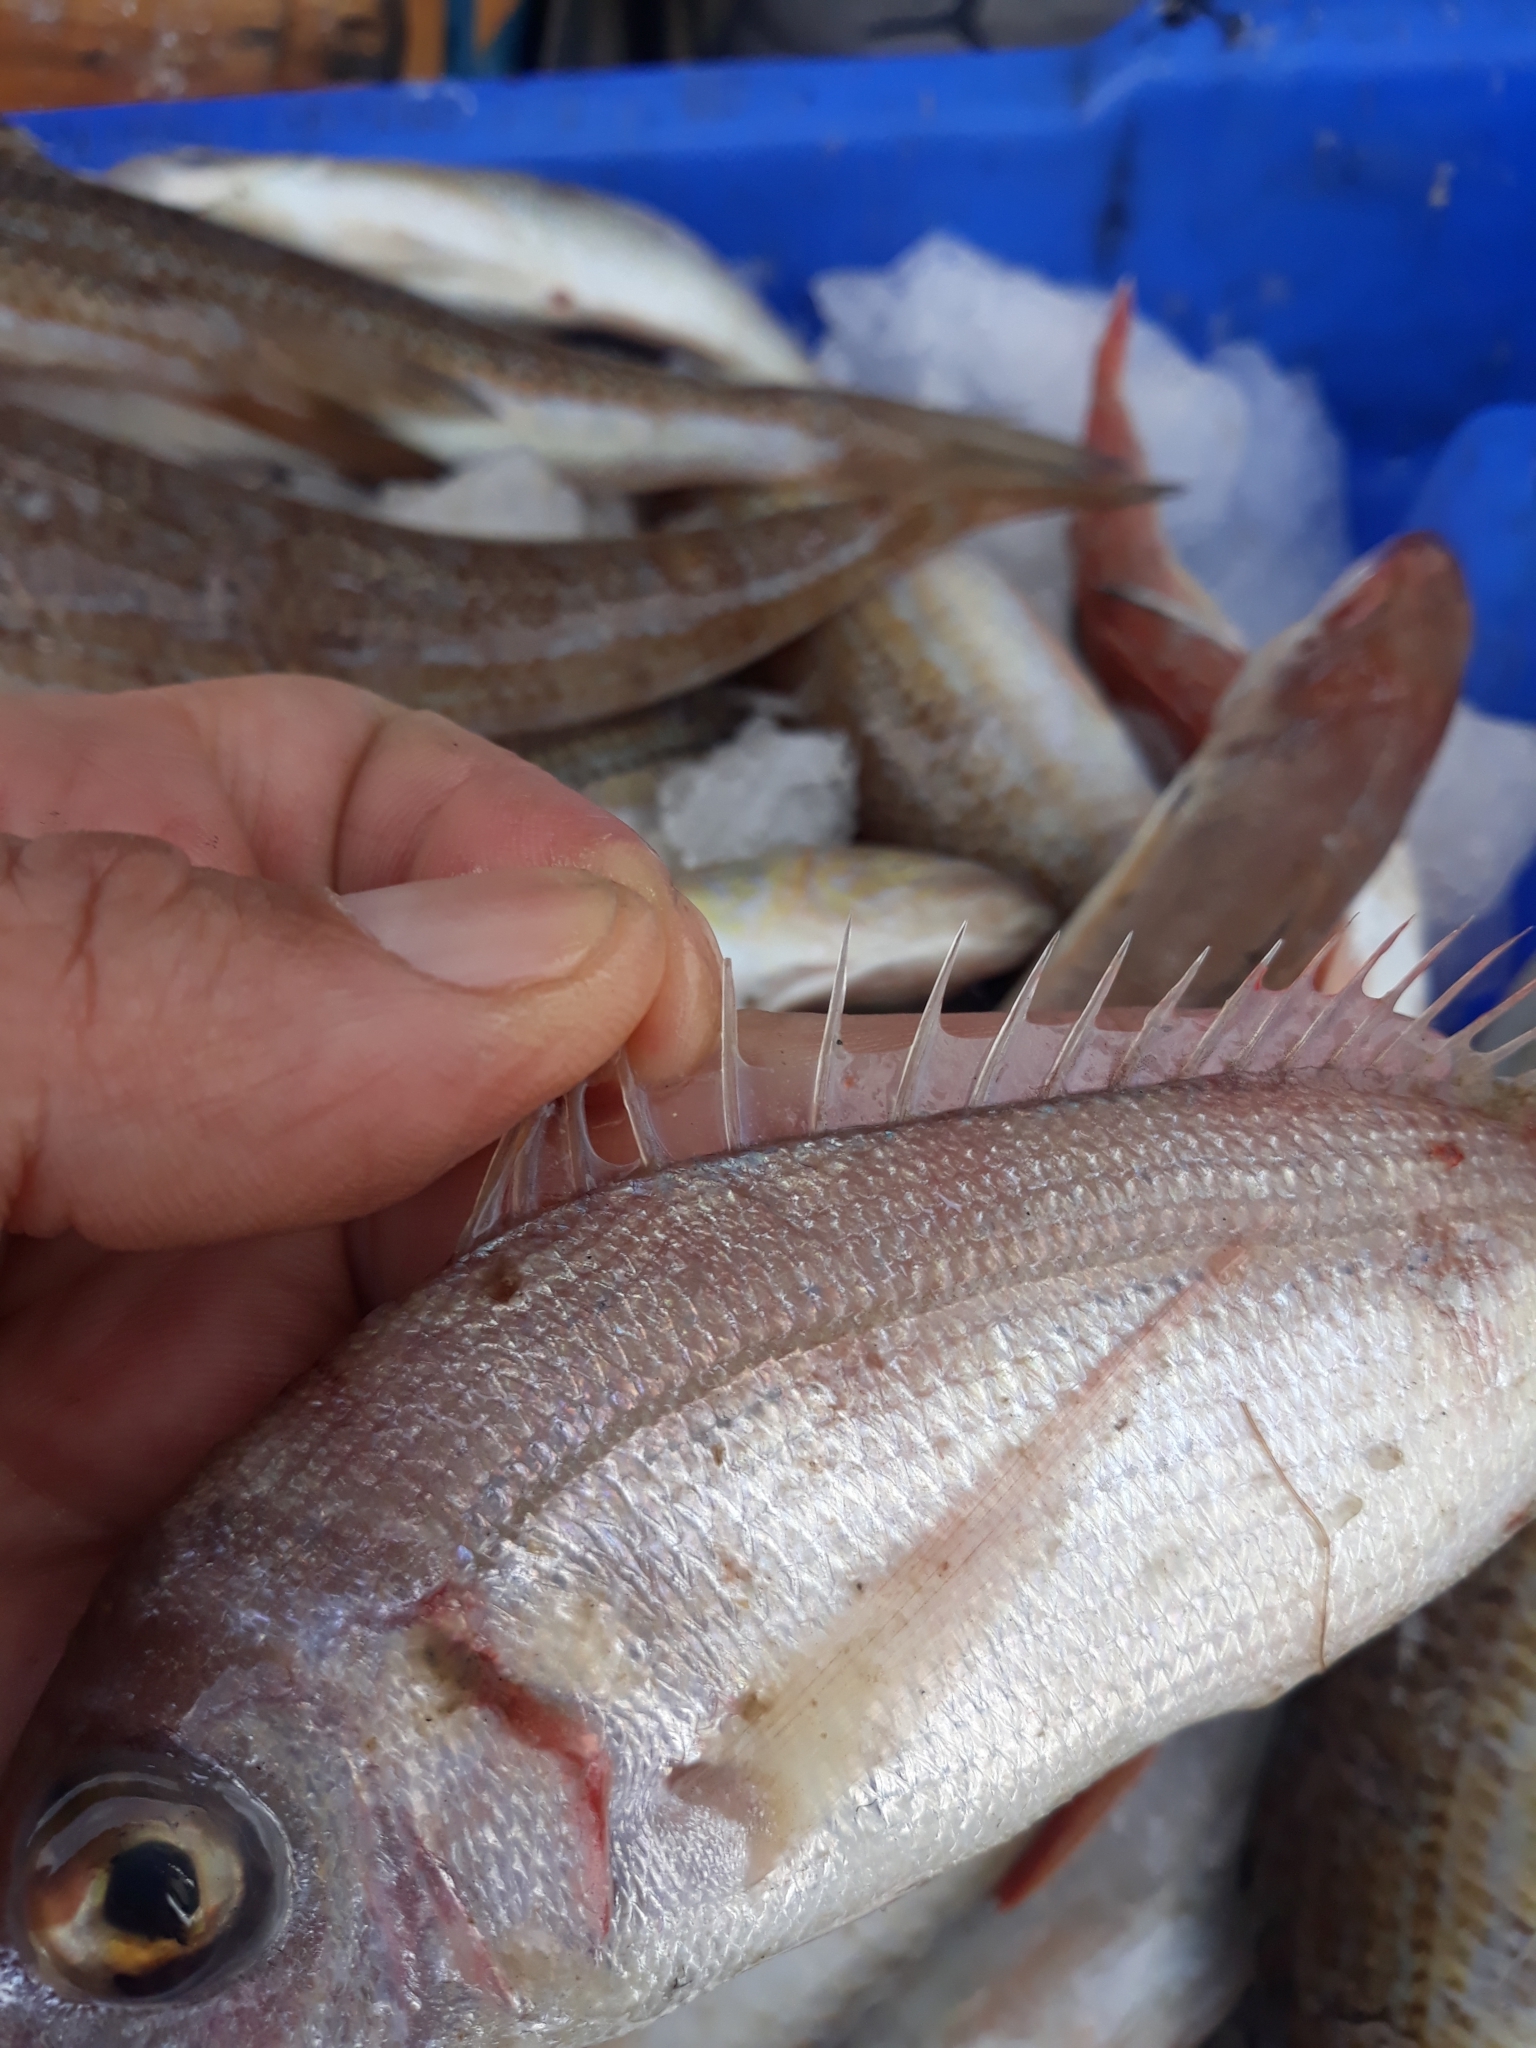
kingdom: Animalia
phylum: Chordata
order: Perciformes
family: Sparidae
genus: Pagellus
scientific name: Pagellus bellottii
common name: Red pandora
